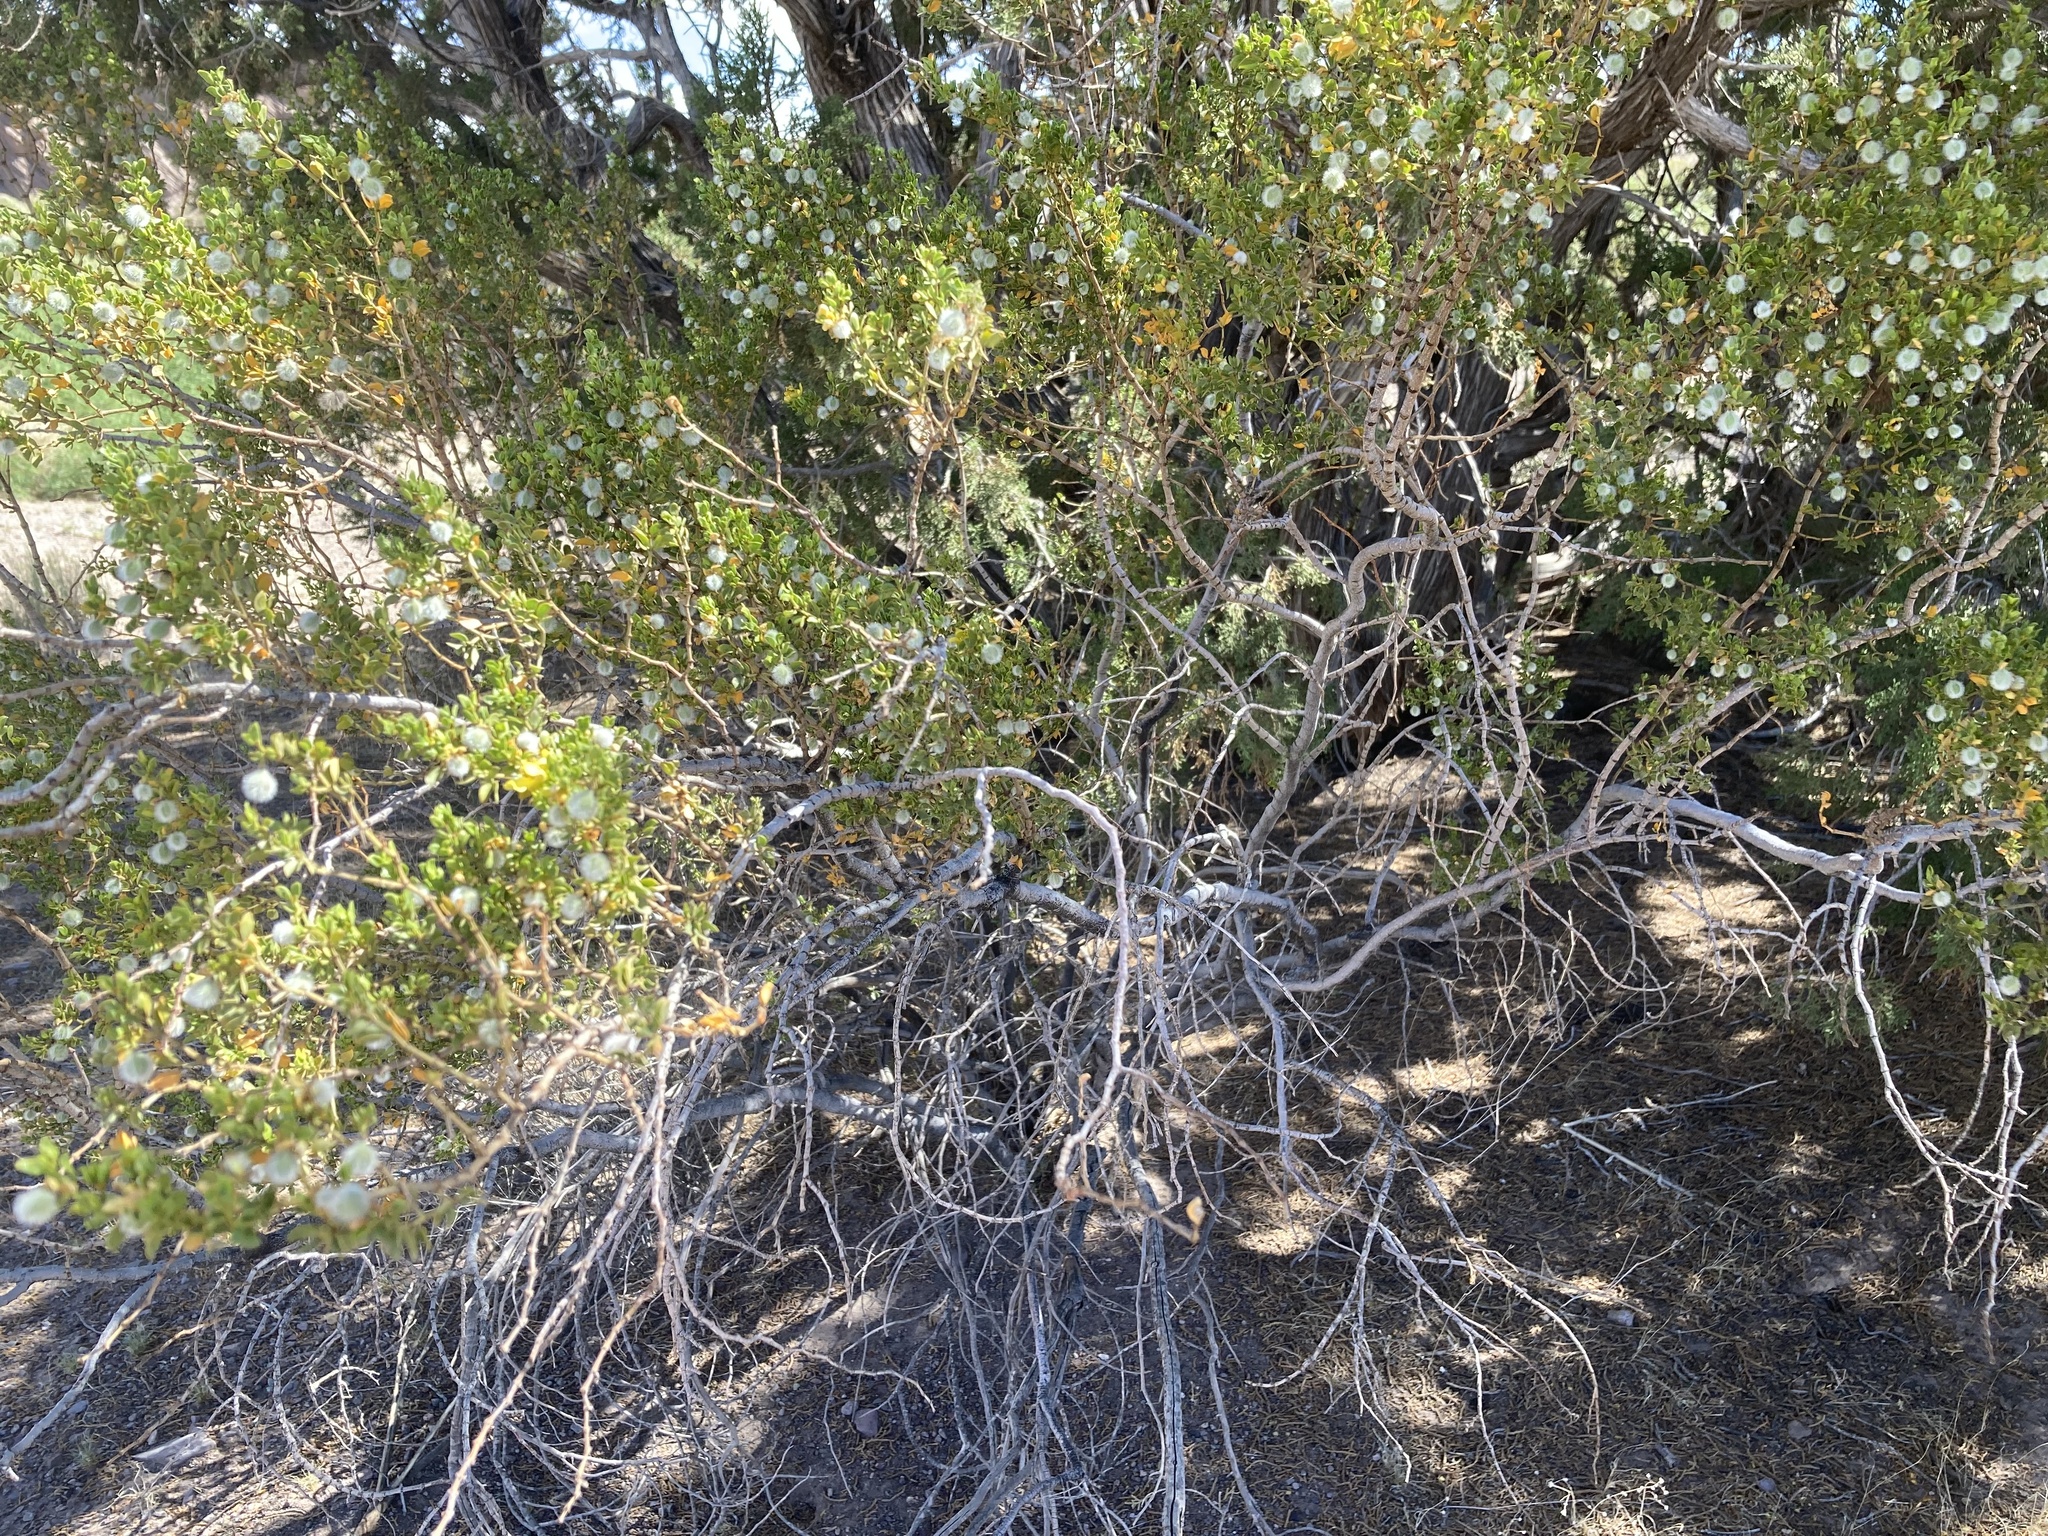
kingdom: Plantae
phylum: Tracheophyta
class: Magnoliopsida
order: Zygophyllales
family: Zygophyllaceae
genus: Larrea
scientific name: Larrea tridentata
